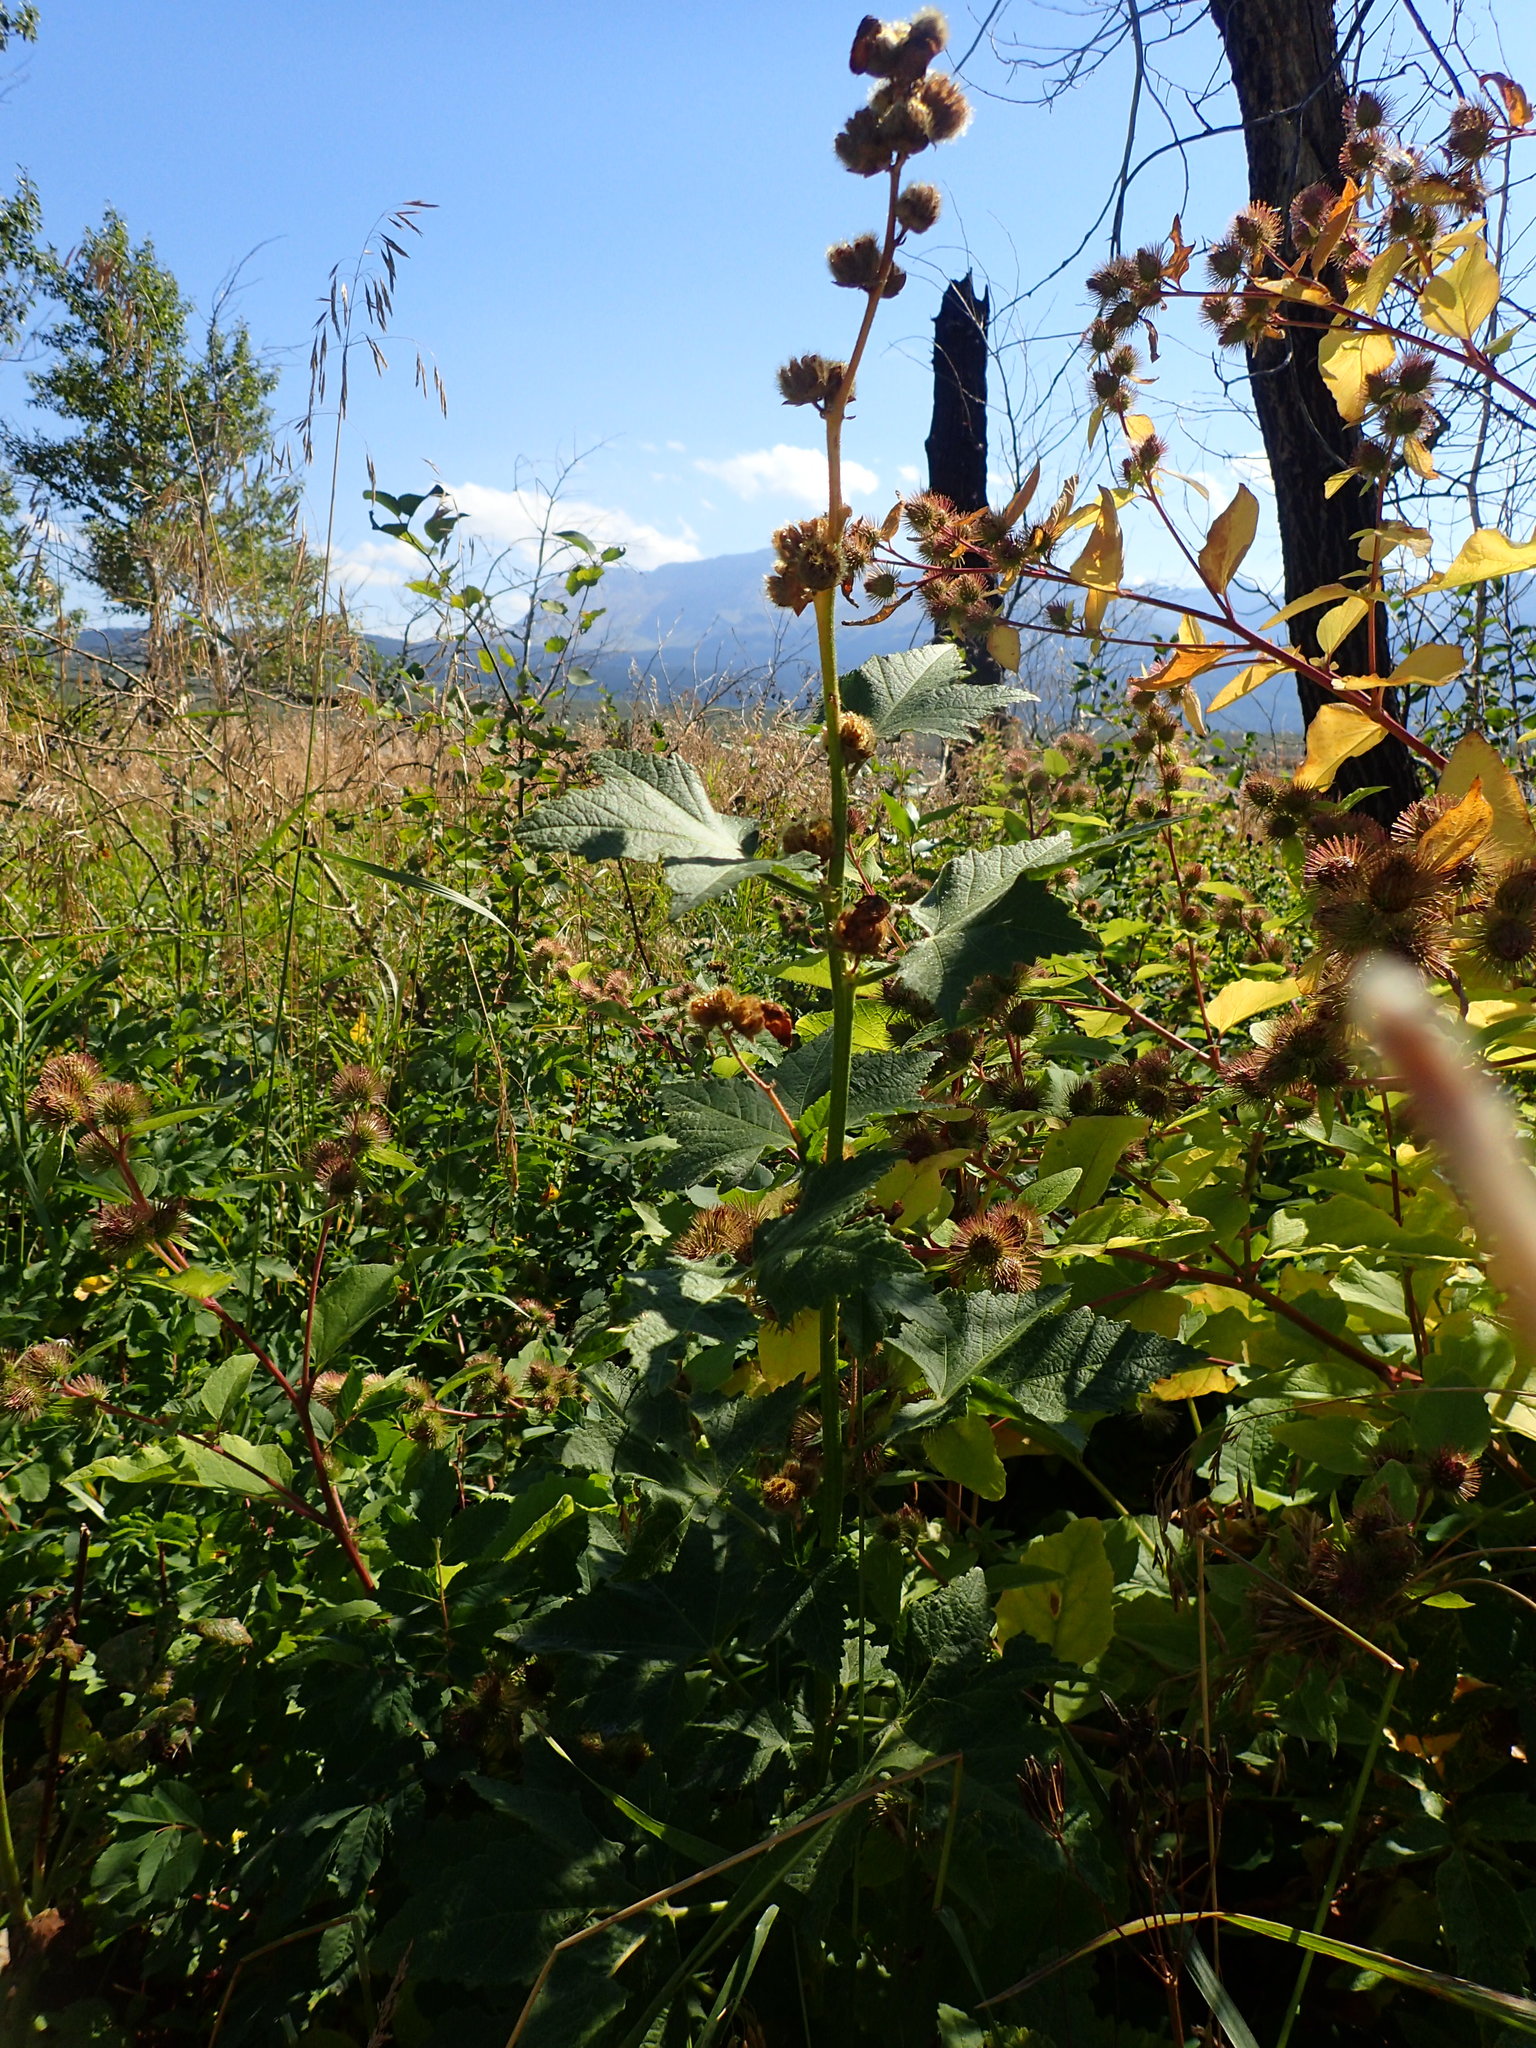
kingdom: Plantae
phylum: Tracheophyta
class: Magnoliopsida
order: Malvales
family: Malvaceae
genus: Iliamna
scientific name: Iliamna rivularis
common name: Wild hollyhock
